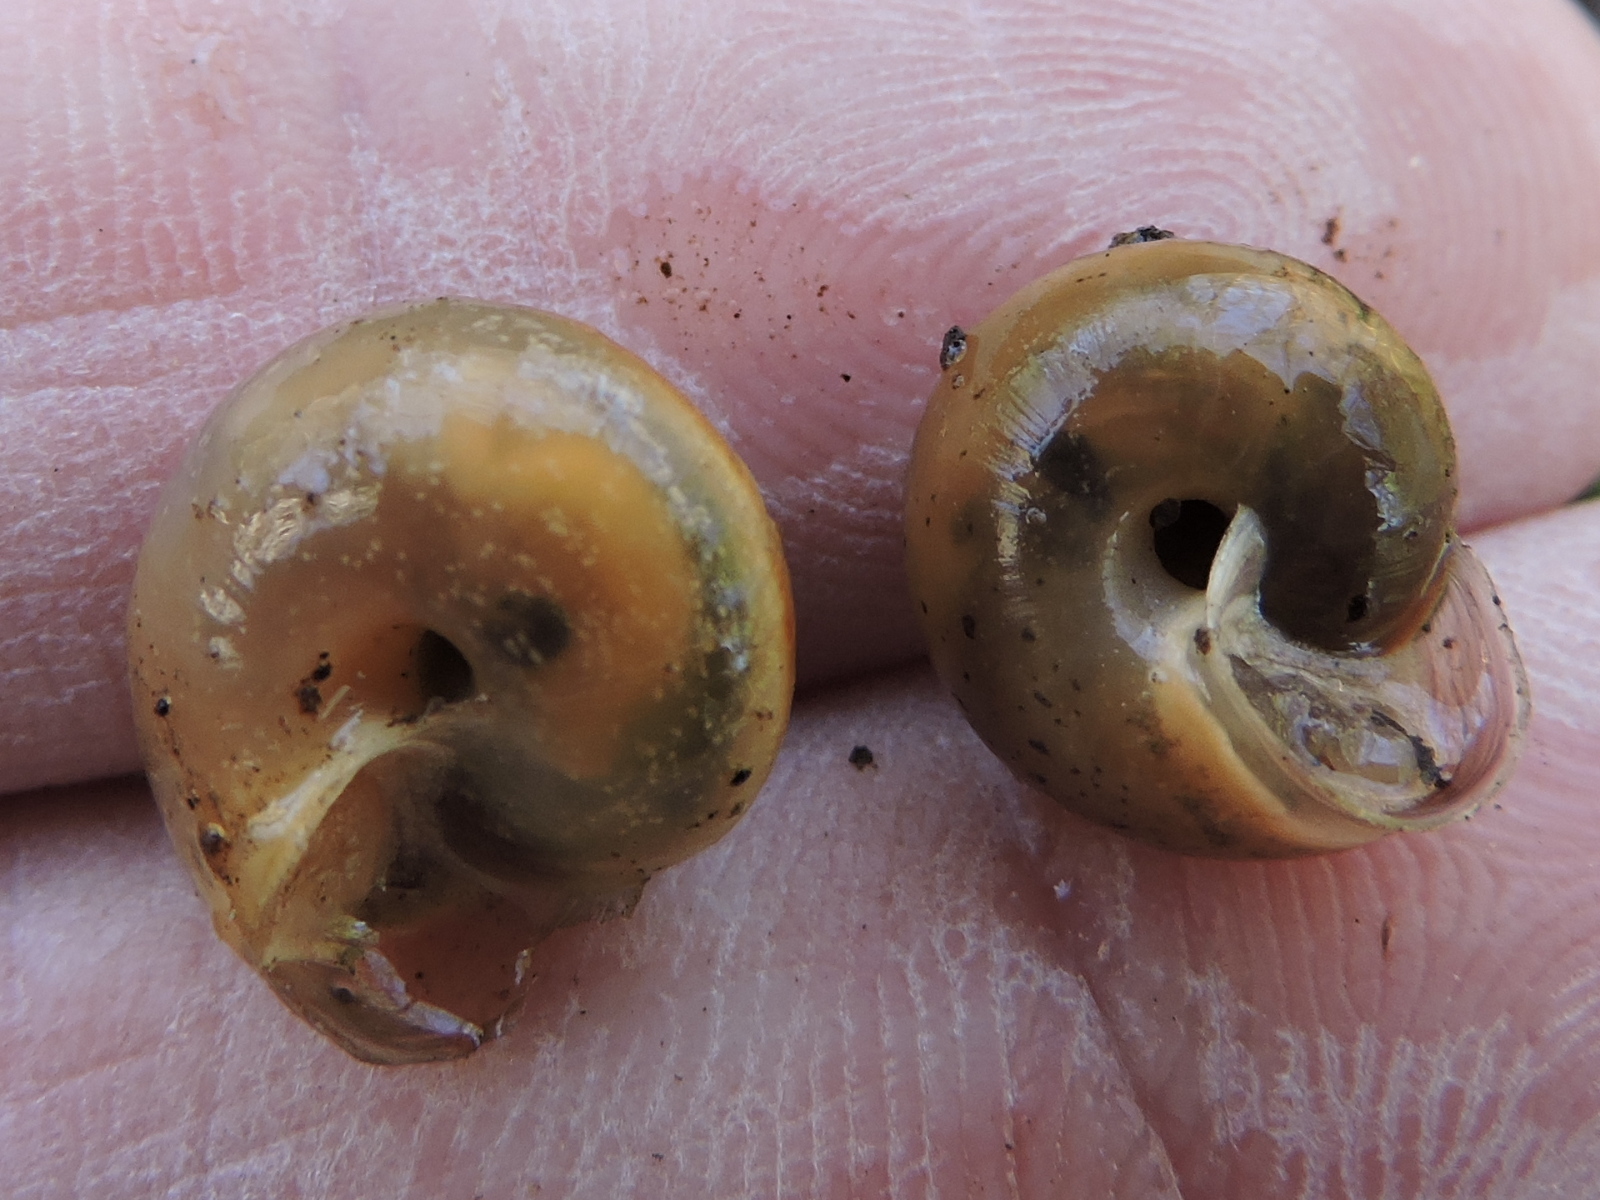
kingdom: Animalia
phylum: Mollusca
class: Gastropoda
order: Stylommatophora
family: Camaenidae
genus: Bradybaena
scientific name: Bradybaena similaris
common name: Asian trampsnail
